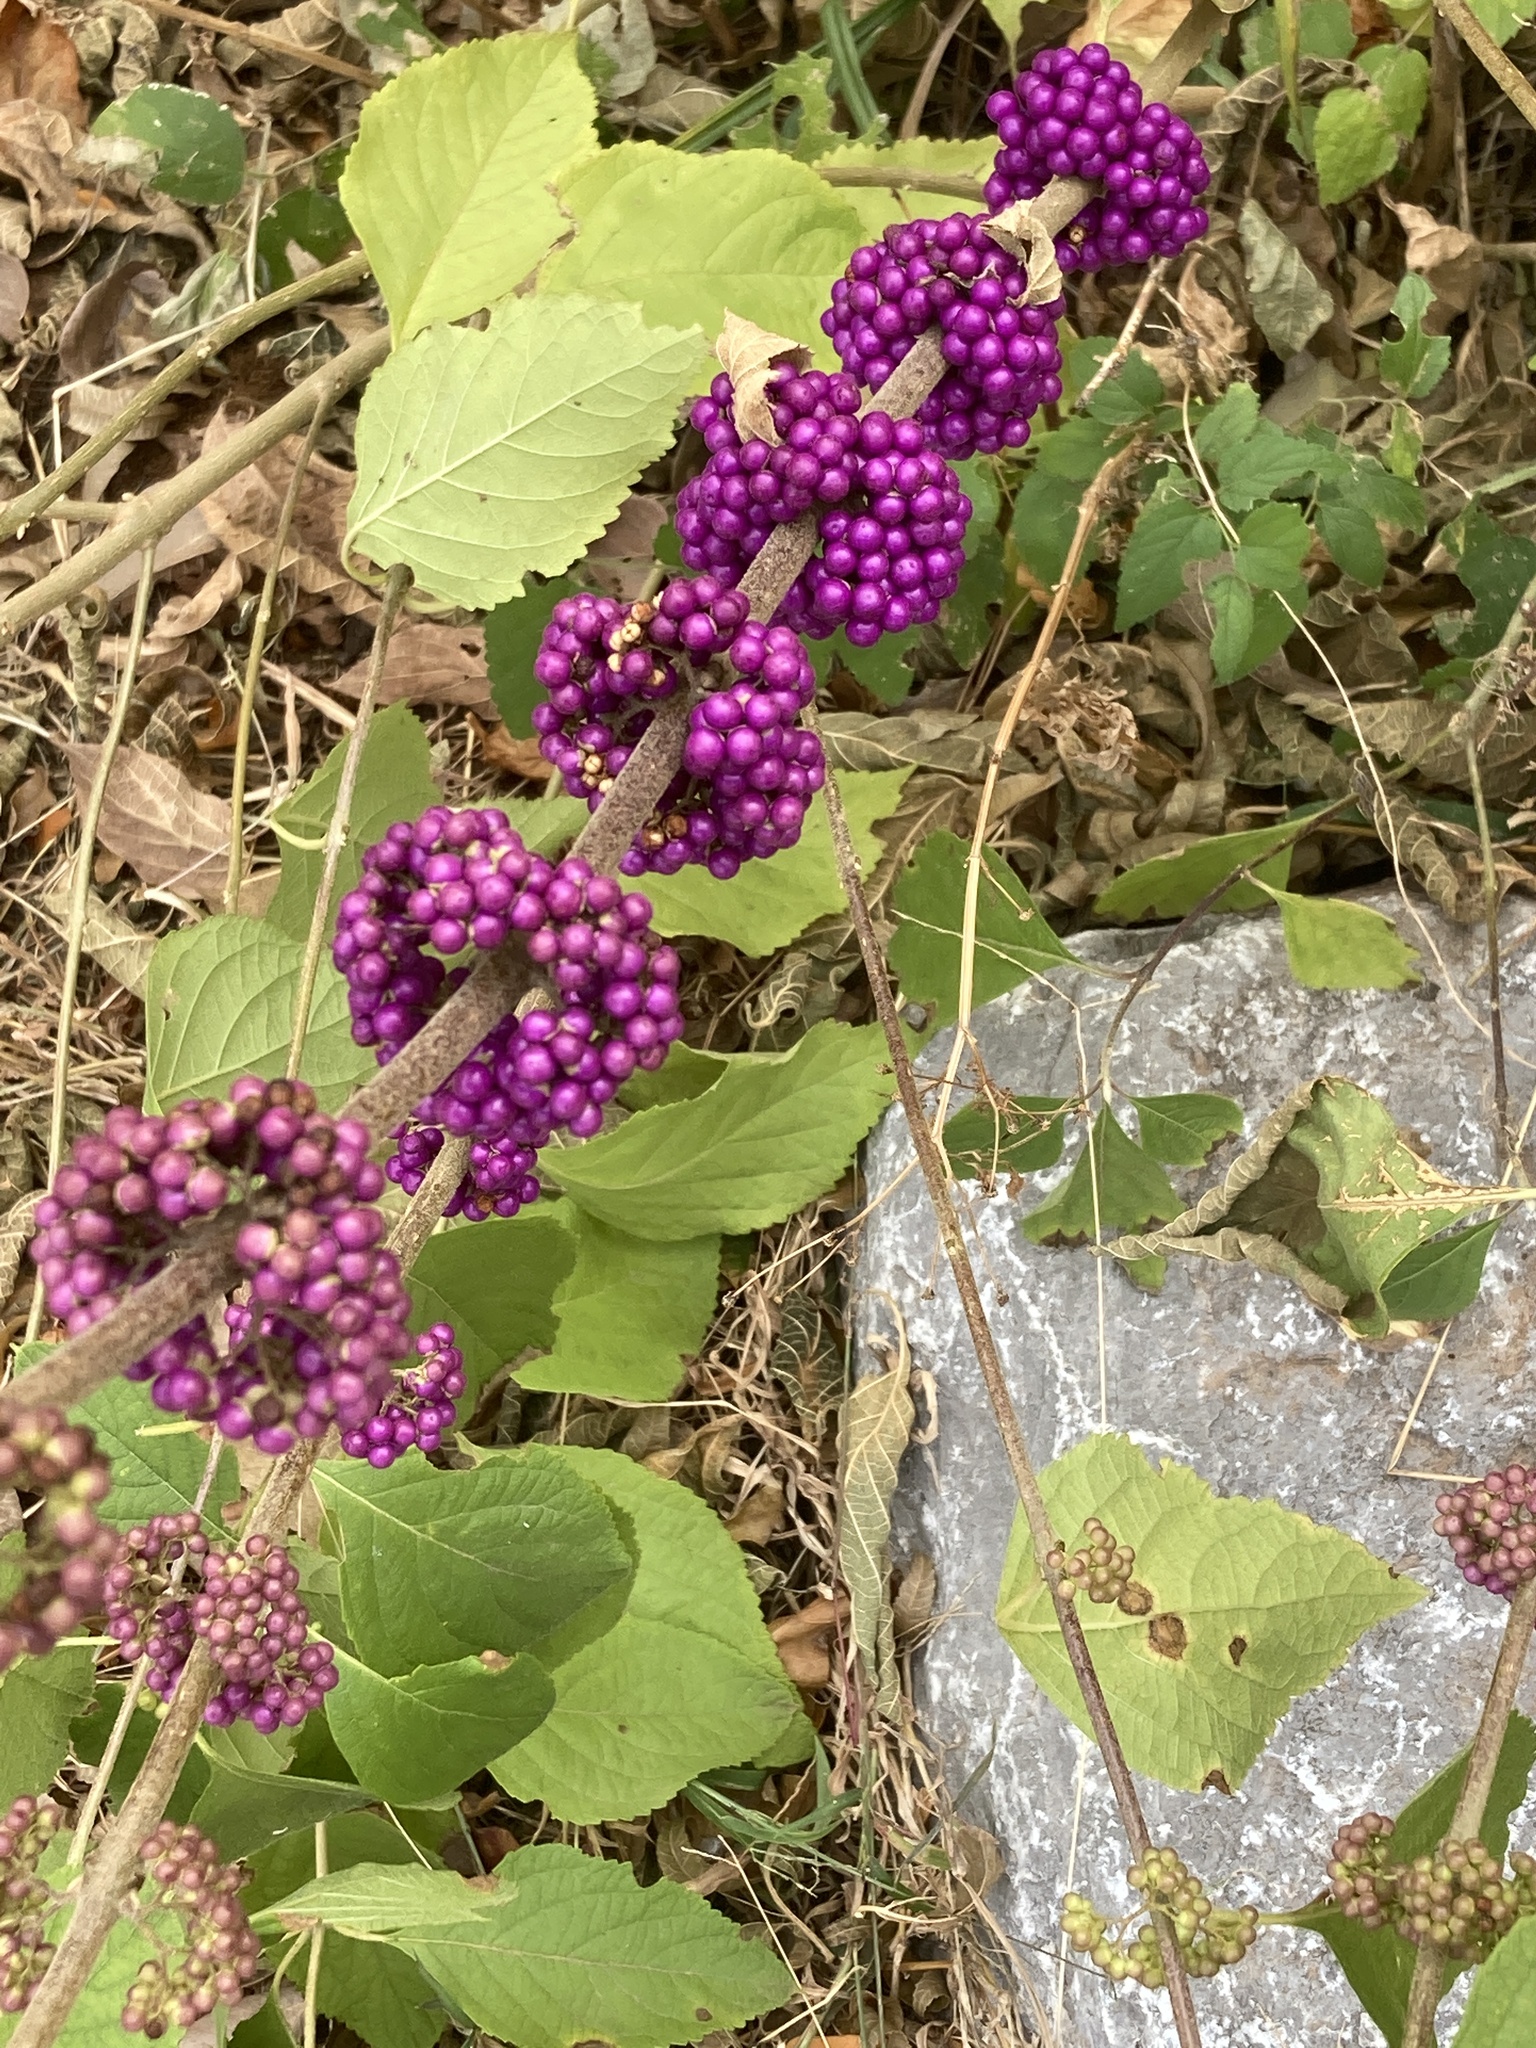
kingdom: Plantae
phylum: Tracheophyta
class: Magnoliopsida
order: Lamiales
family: Lamiaceae
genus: Callicarpa
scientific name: Callicarpa americana
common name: American beautyberry
